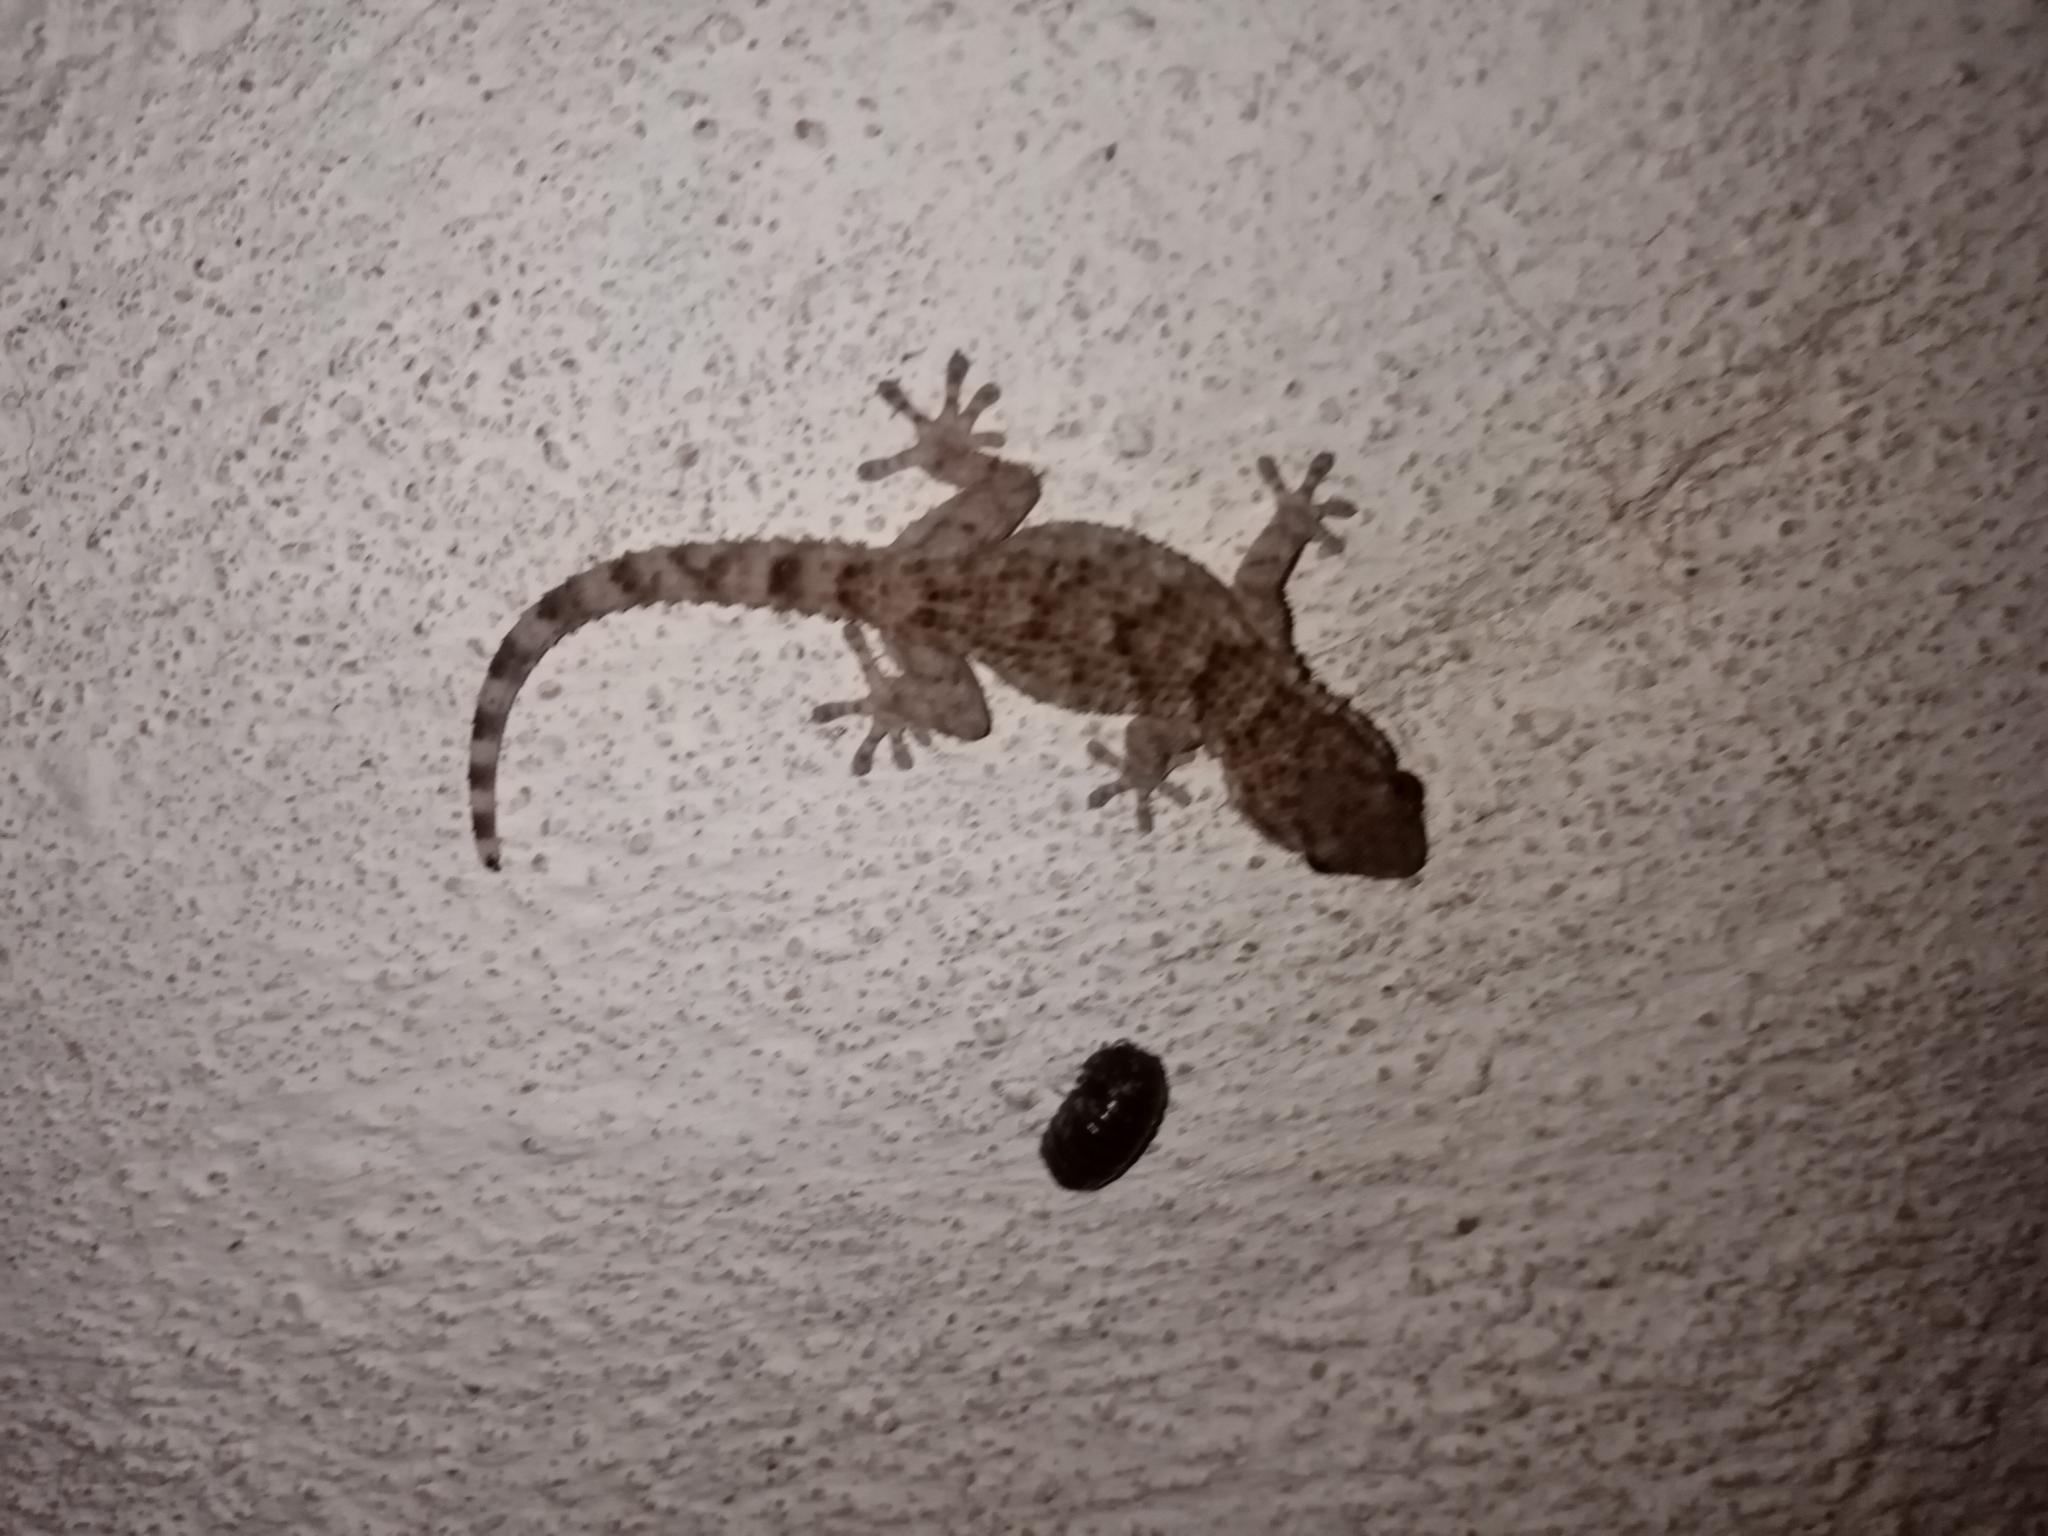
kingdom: Animalia
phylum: Chordata
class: Squamata
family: Phyllodactylidae
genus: Tarentola
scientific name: Tarentola mauritanica
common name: Moorish gecko
